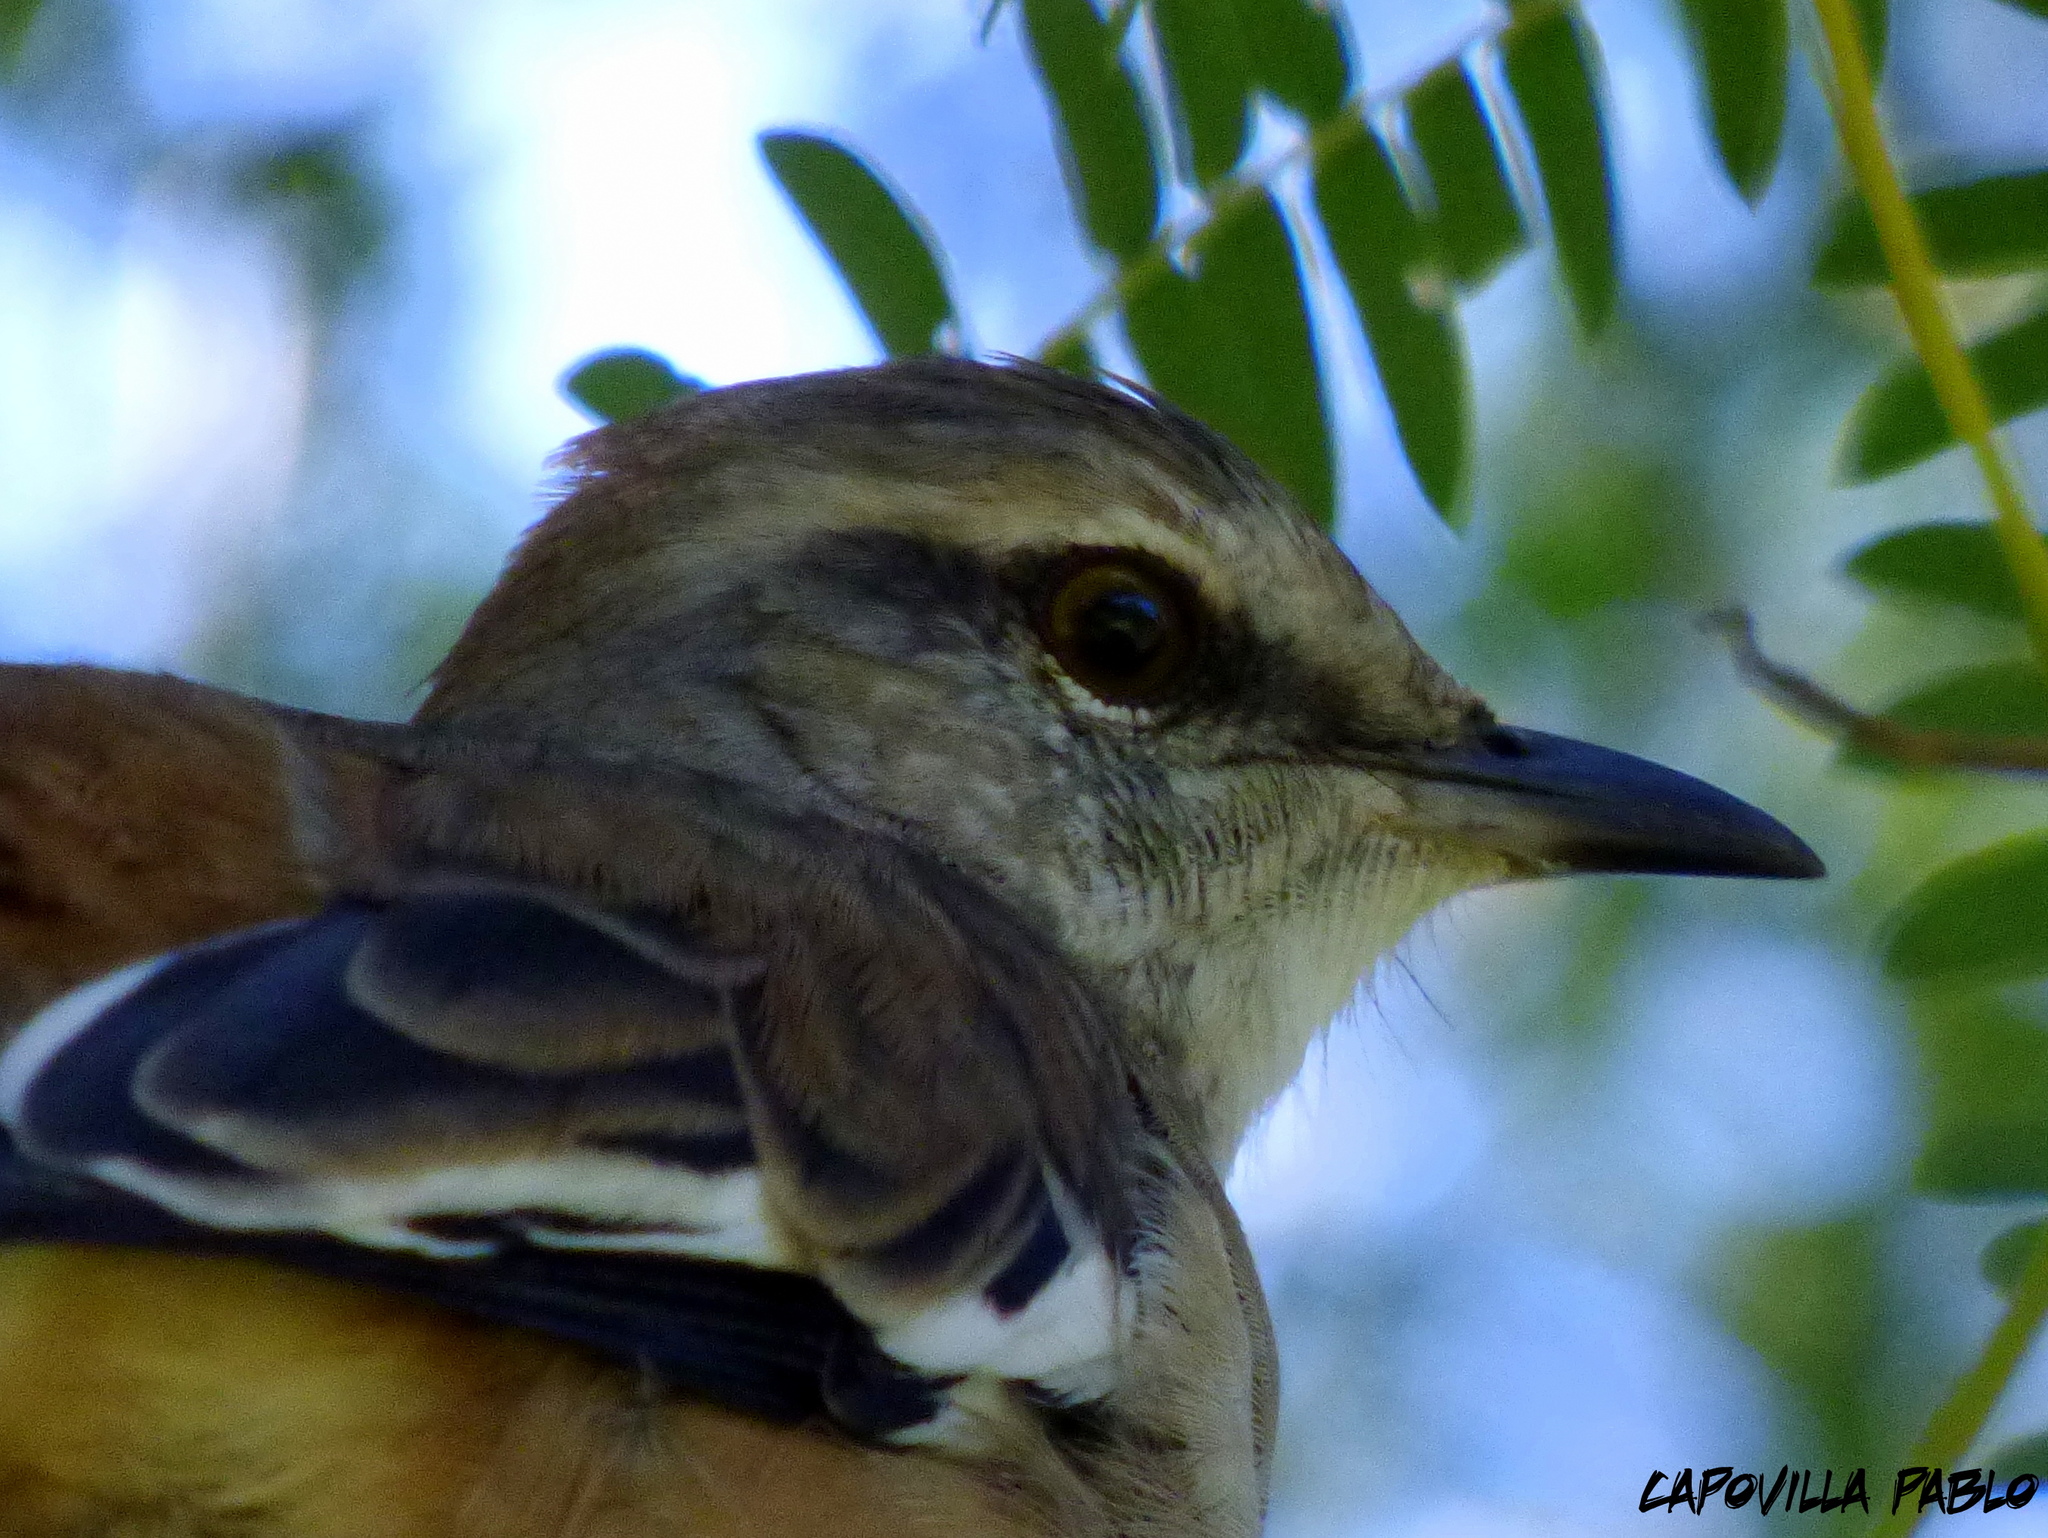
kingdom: Animalia
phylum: Chordata
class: Aves
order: Passeriformes
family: Mimidae
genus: Mimus
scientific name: Mimus triurus
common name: White-banded mockingbird
